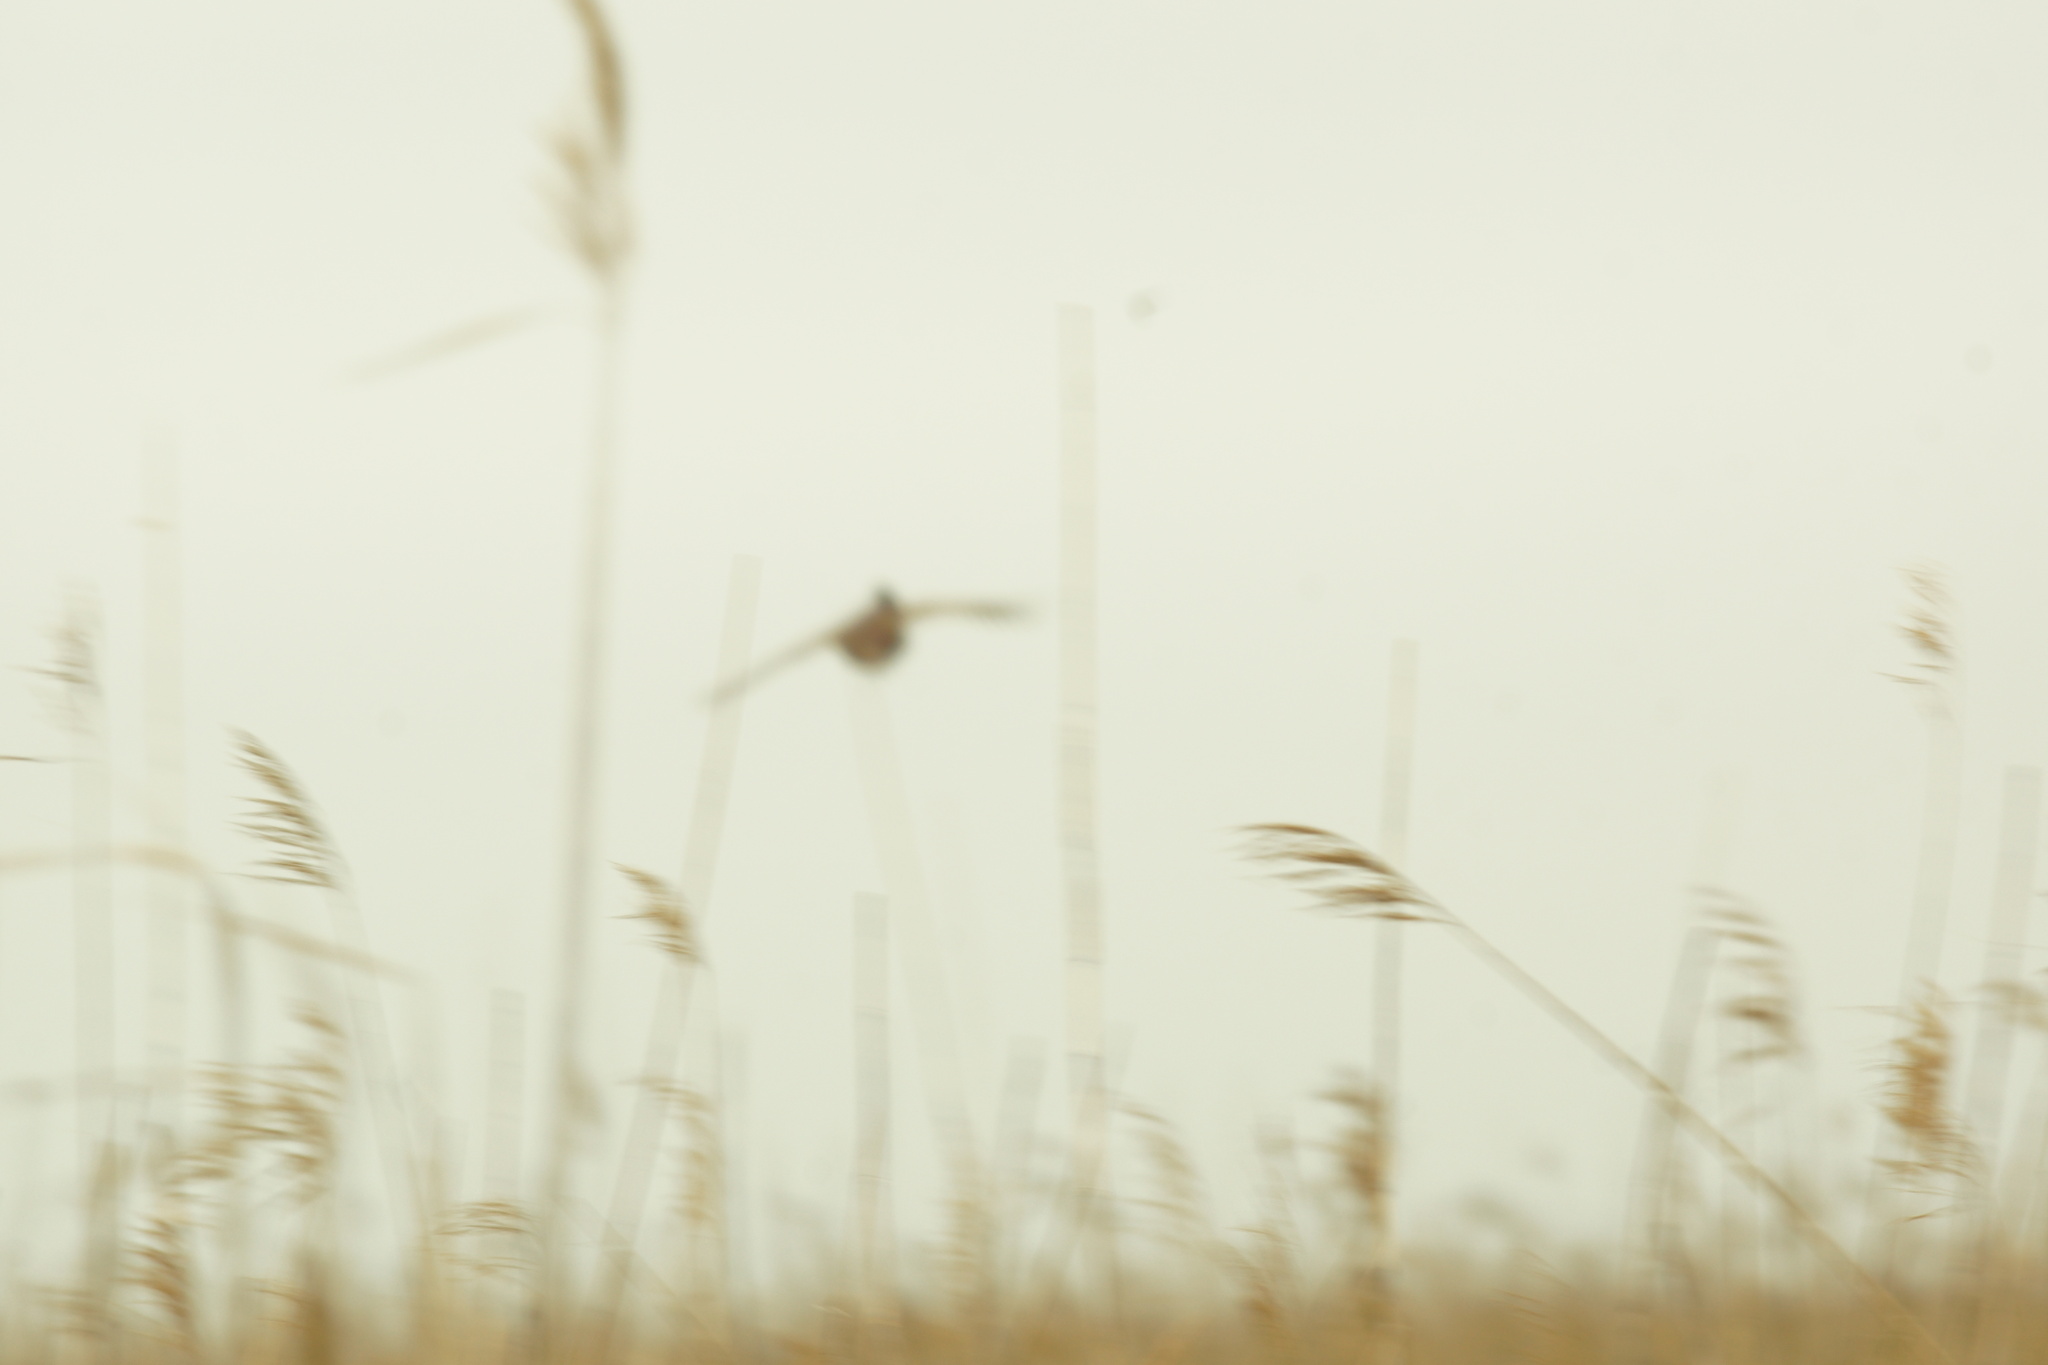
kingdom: Animalia
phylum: Chordata
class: Aves
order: Galliformes
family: Phasianidae
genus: Phasianus
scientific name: Phasianus colchicus
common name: Common pheasant
